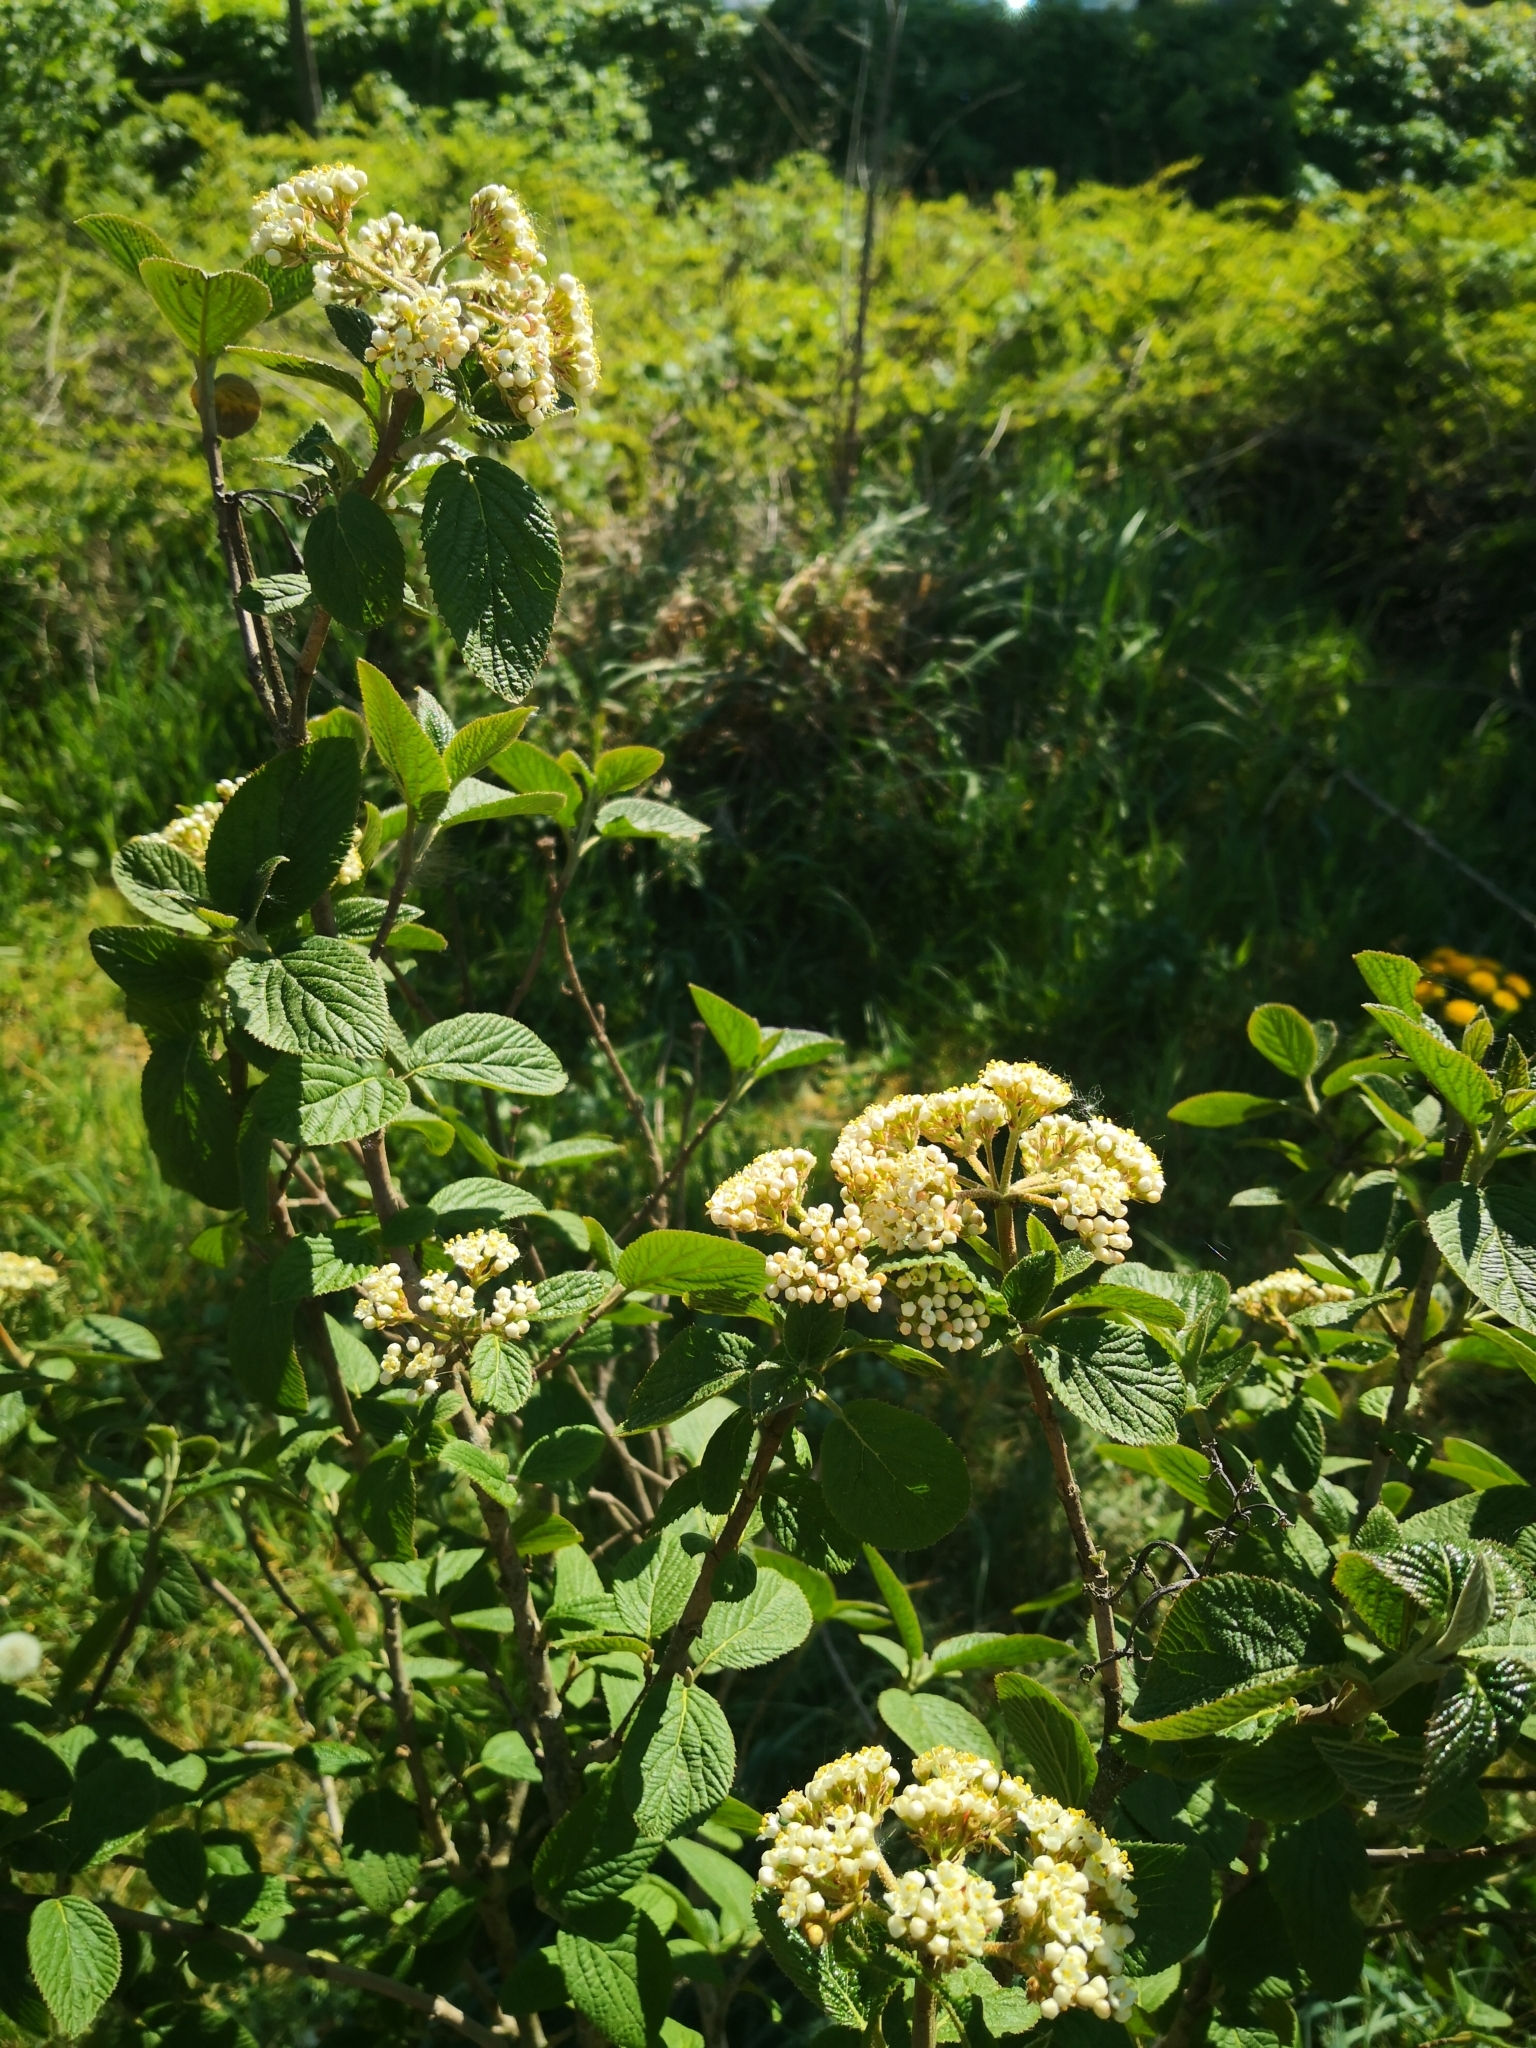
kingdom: Plantae
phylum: Tracheophyta
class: Magnoliopsida
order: Dipsacales
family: Viburnaceae
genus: Viburnum
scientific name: Viburnum lantana
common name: Wayfaring tree
